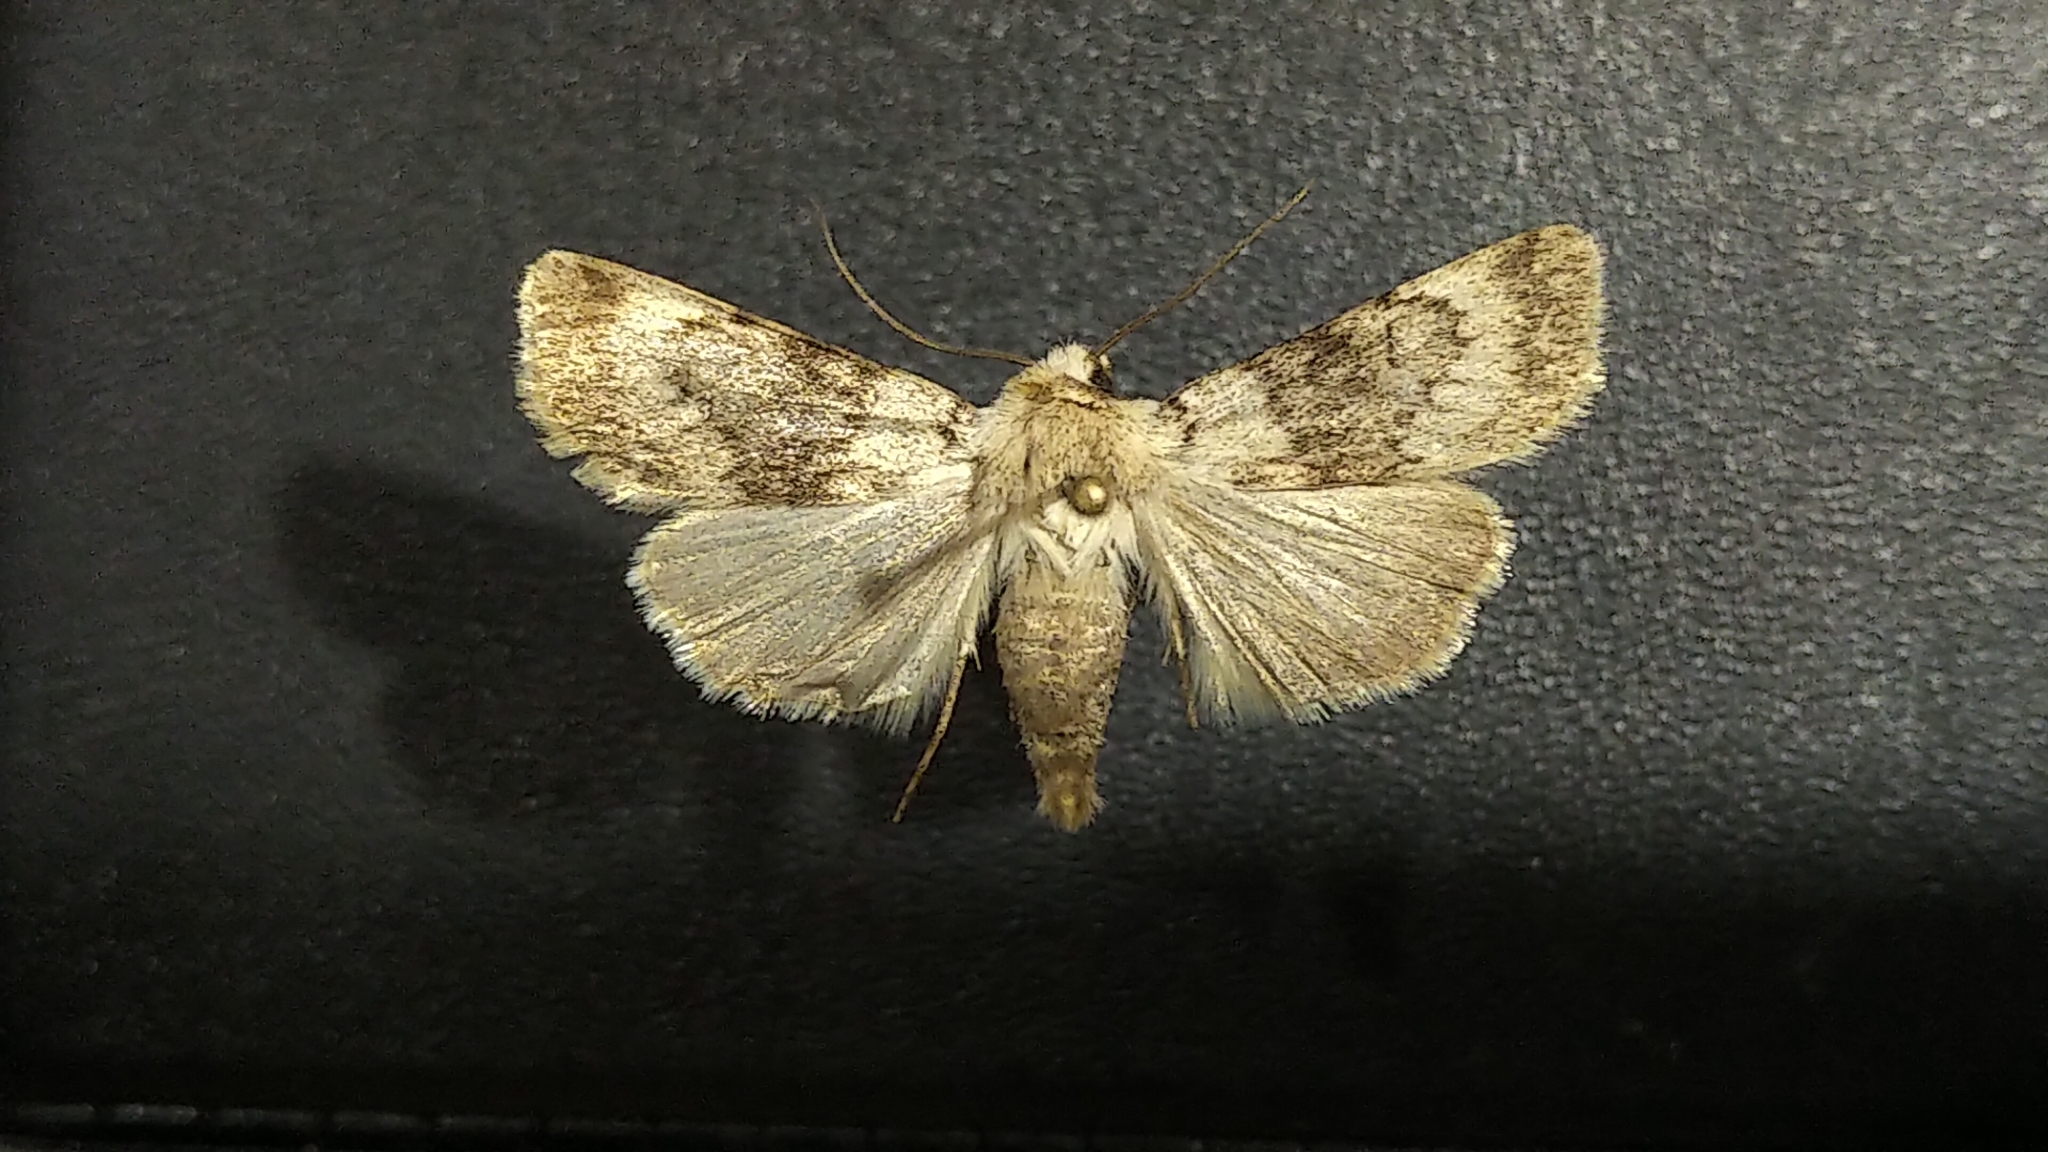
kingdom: Animalia
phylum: Arthropoda
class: Insecta
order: Lepidoptera
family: Noctuidae
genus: Euxoa
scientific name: Euxoa setonia
